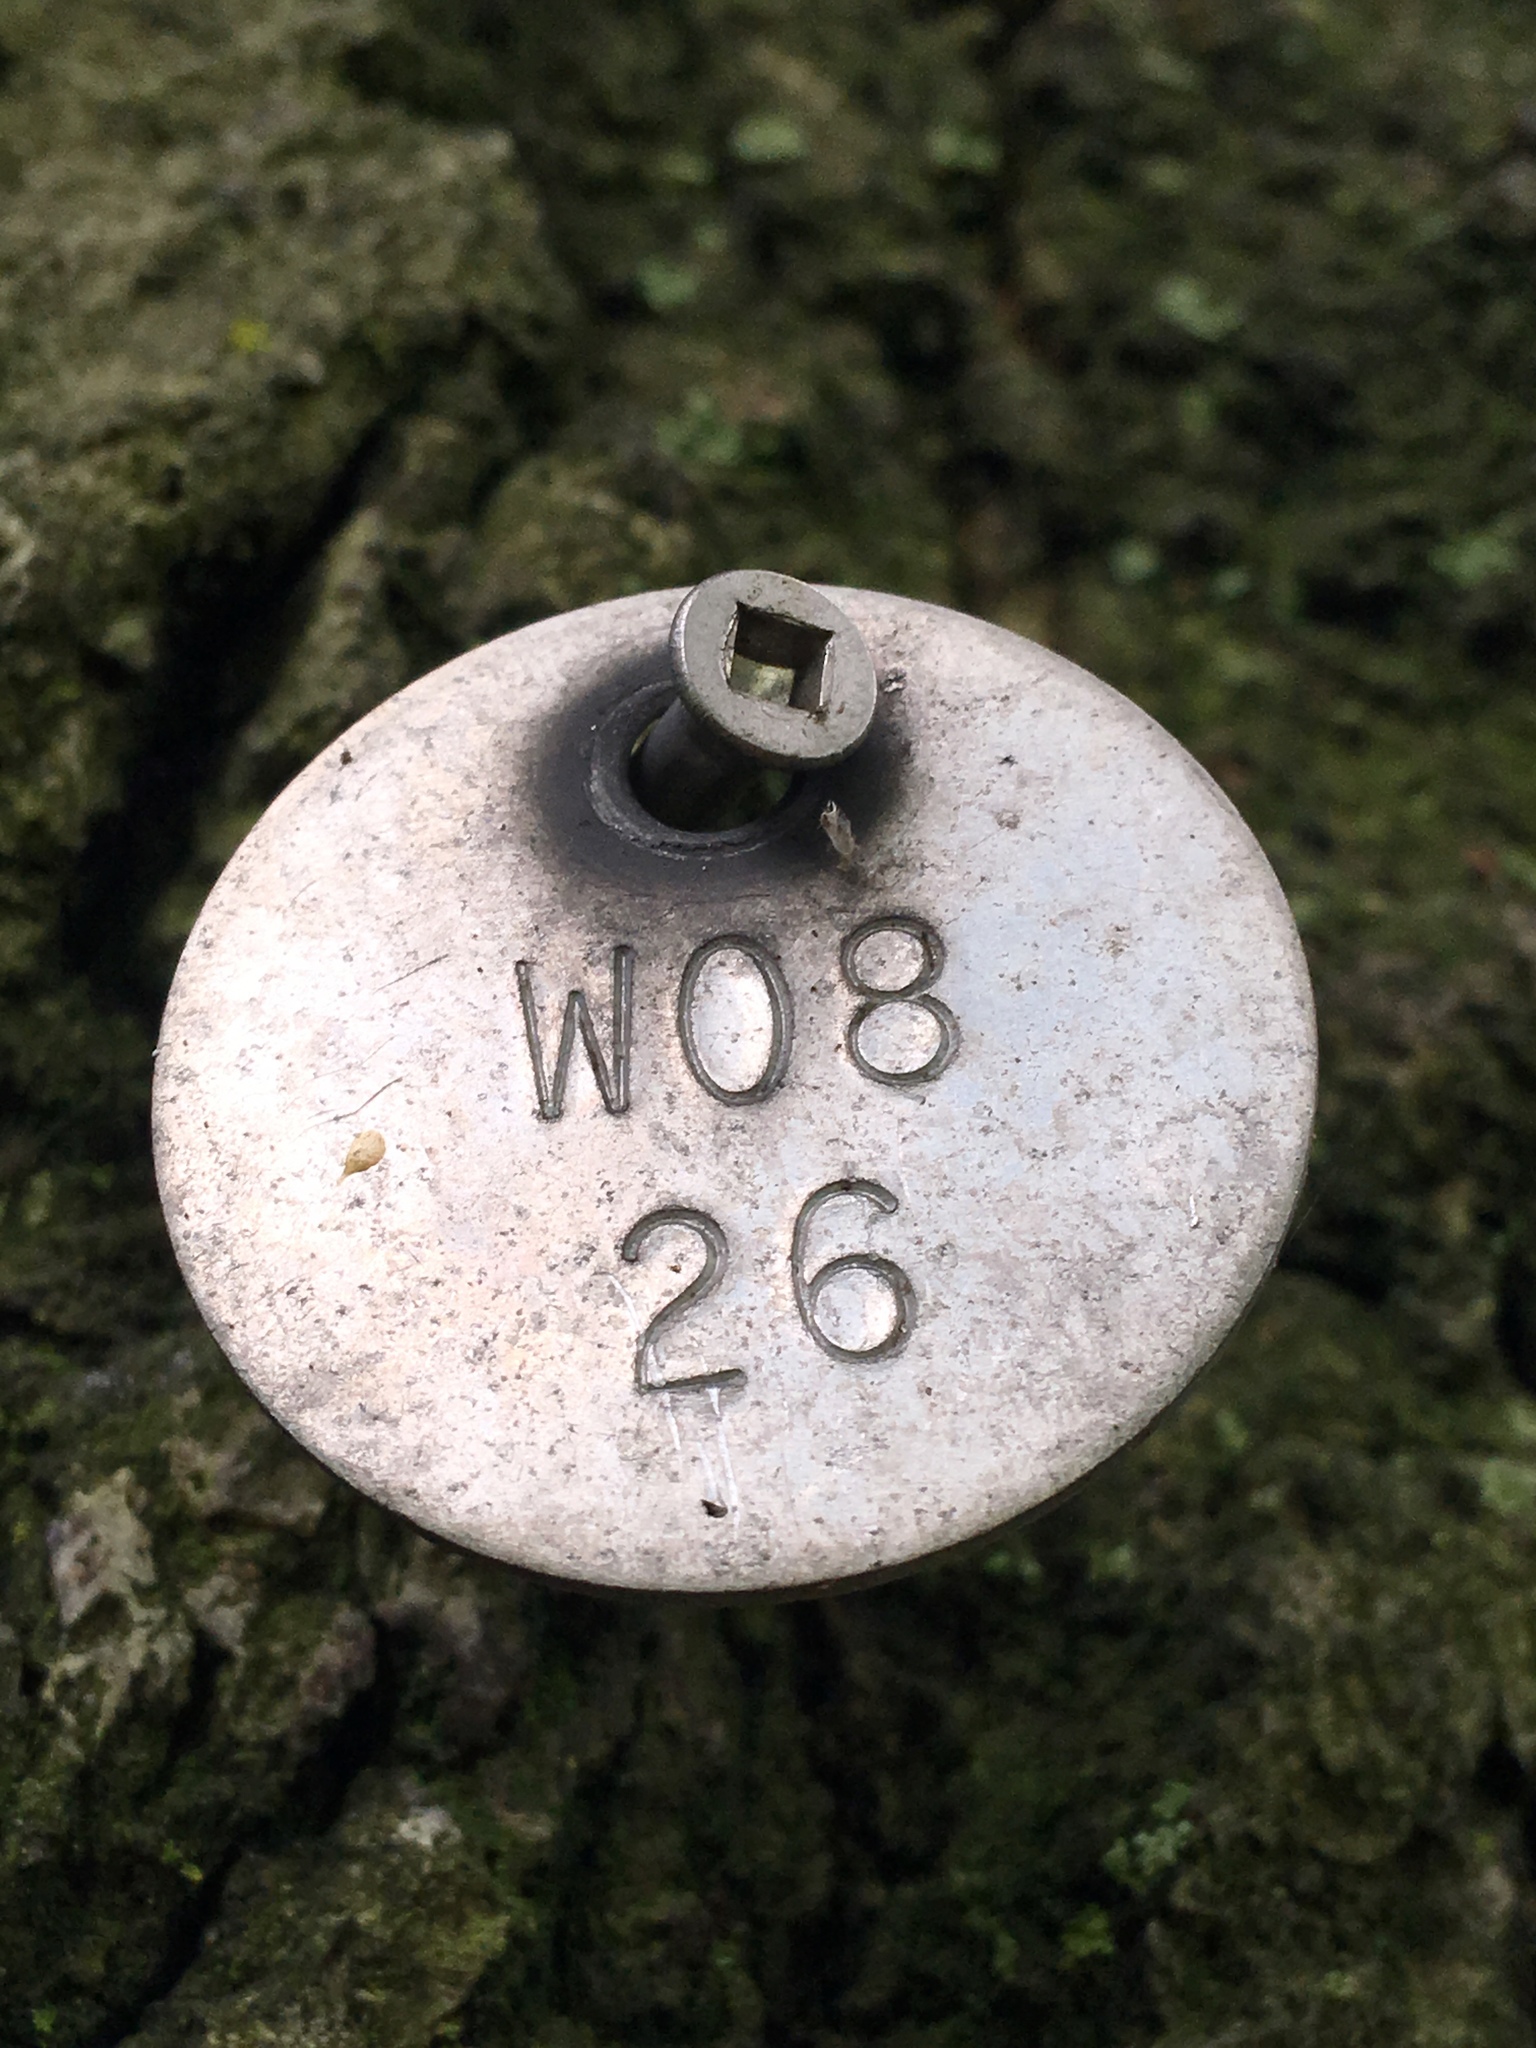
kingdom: Plantae
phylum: Tracheophyta
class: Magnoliopsida
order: Fagales
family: Fagaceae
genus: Quercus
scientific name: Quercus rubra
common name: Red oak
